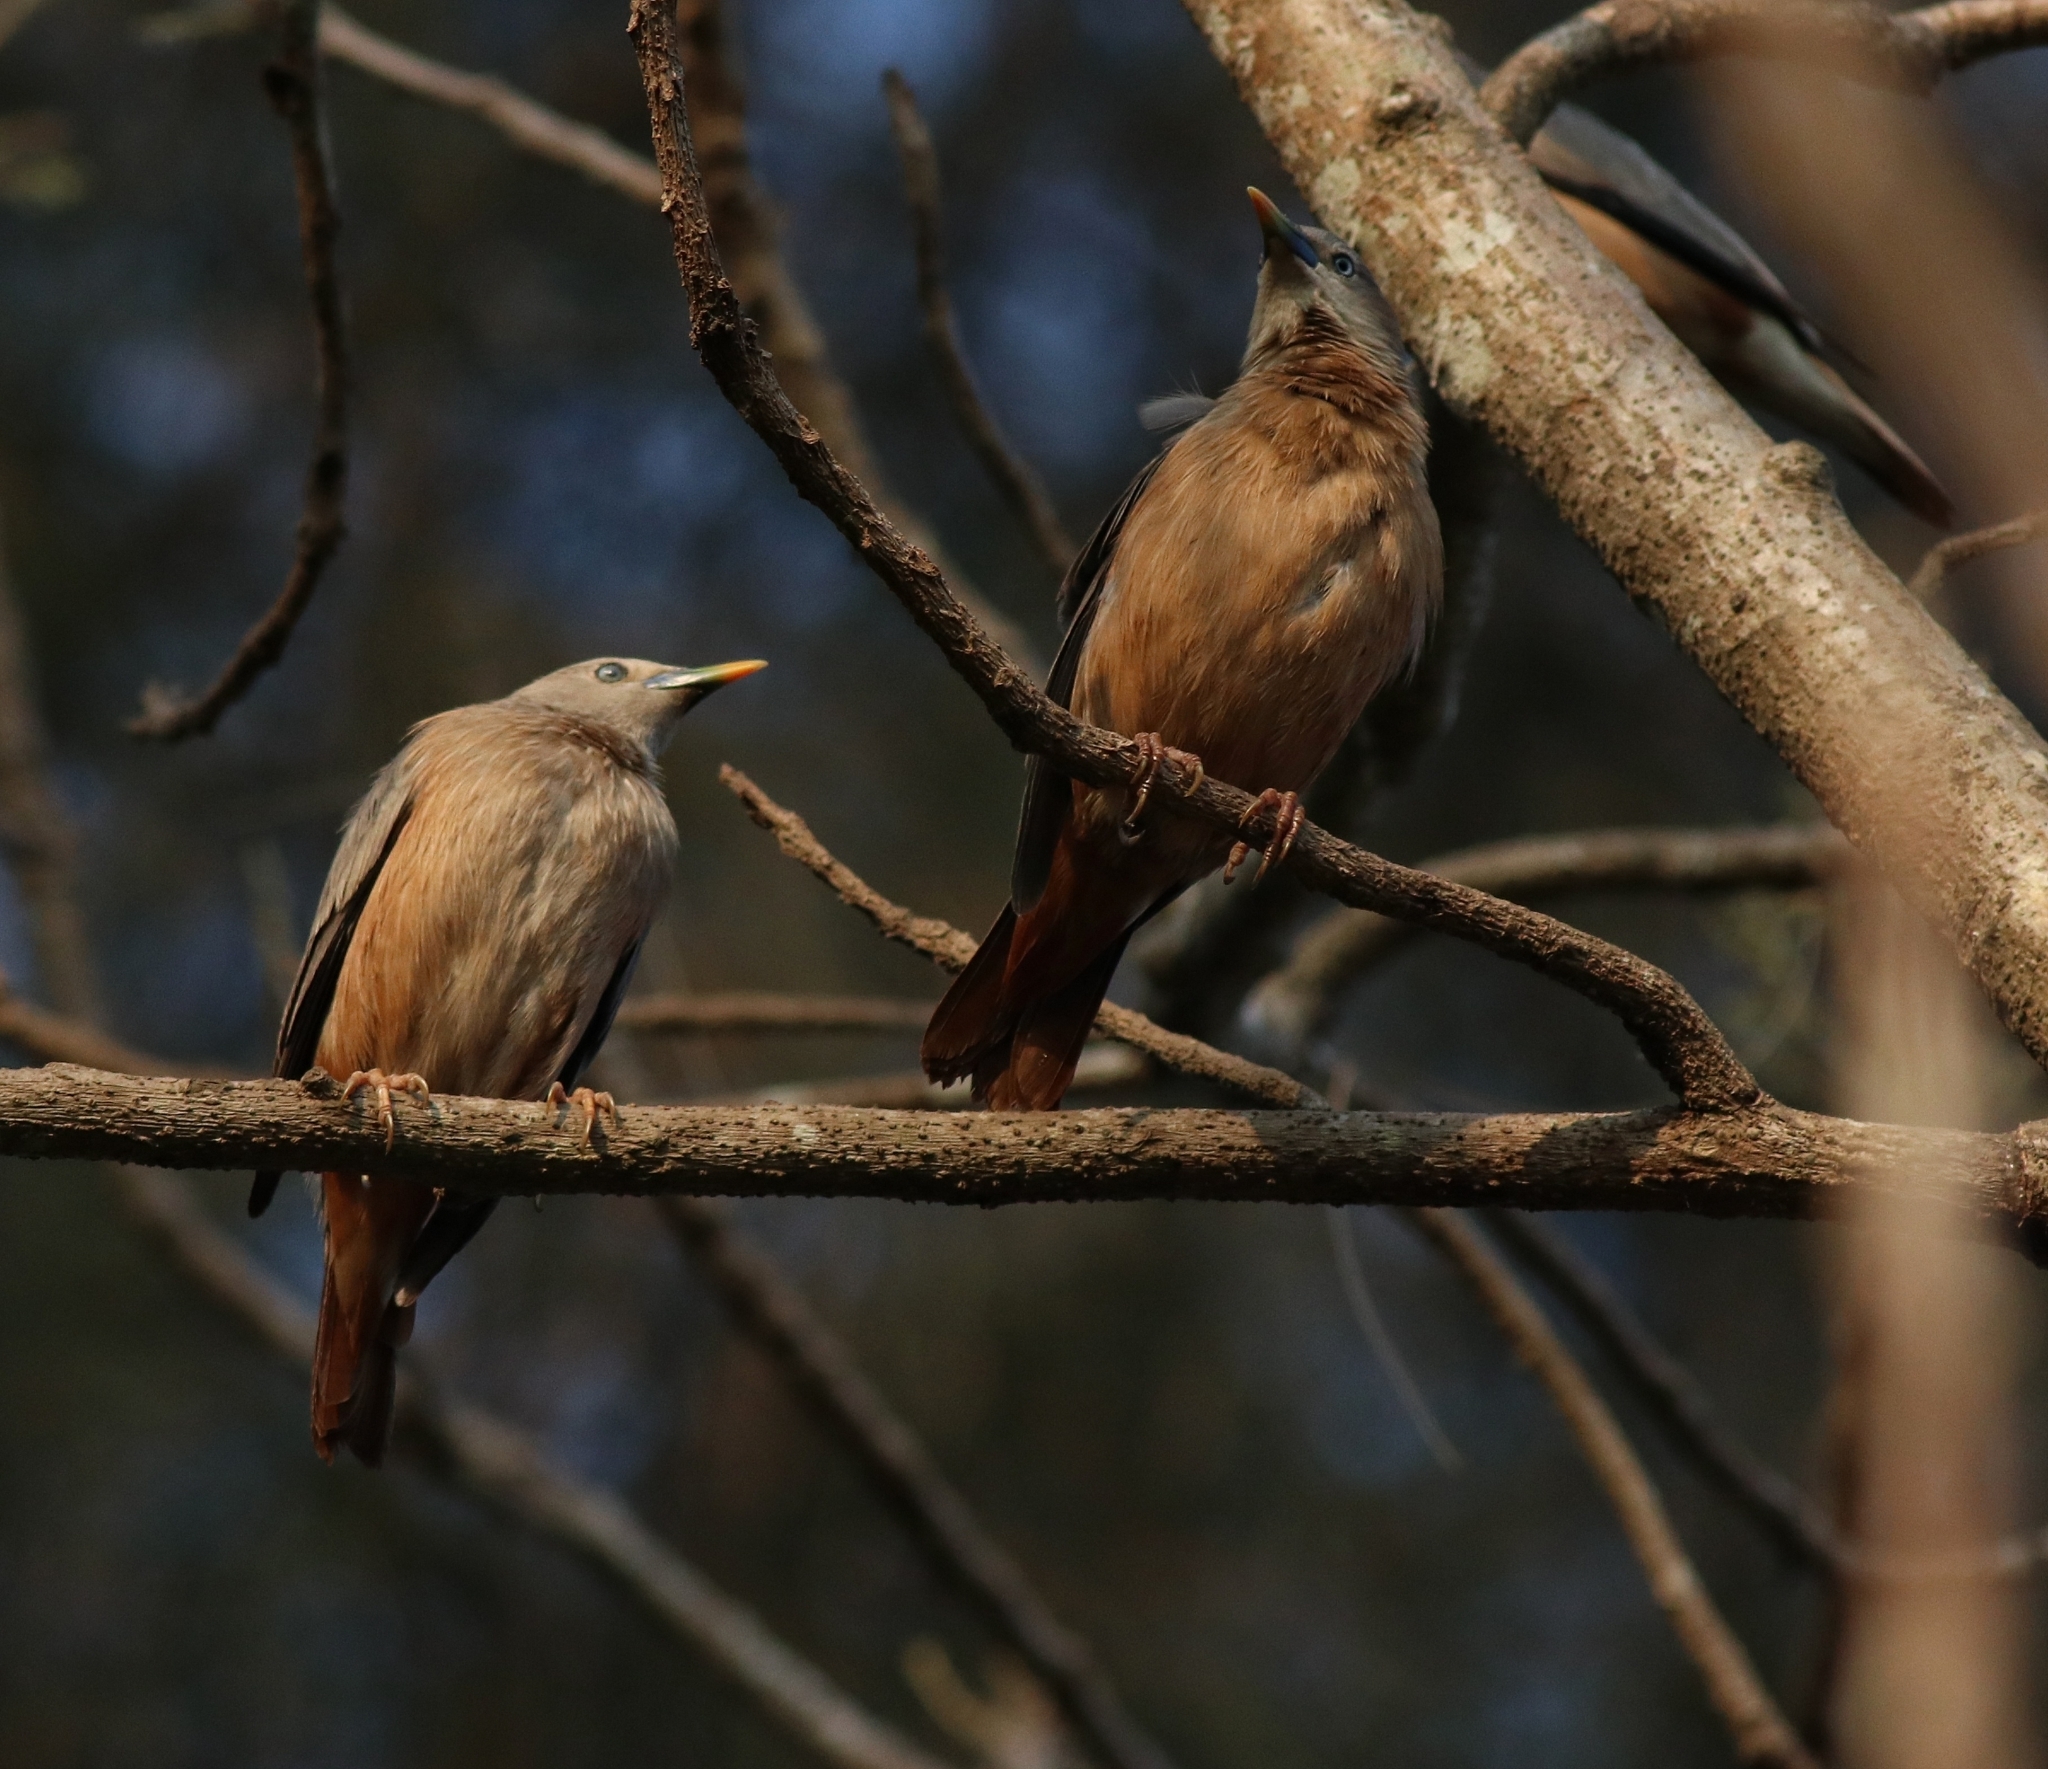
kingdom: Animalia
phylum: Chordata
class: Aves
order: Passeriformes
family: Sturnidae
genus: Sturnia
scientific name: Sturnia malabarica
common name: Chestnut-tailed starling
